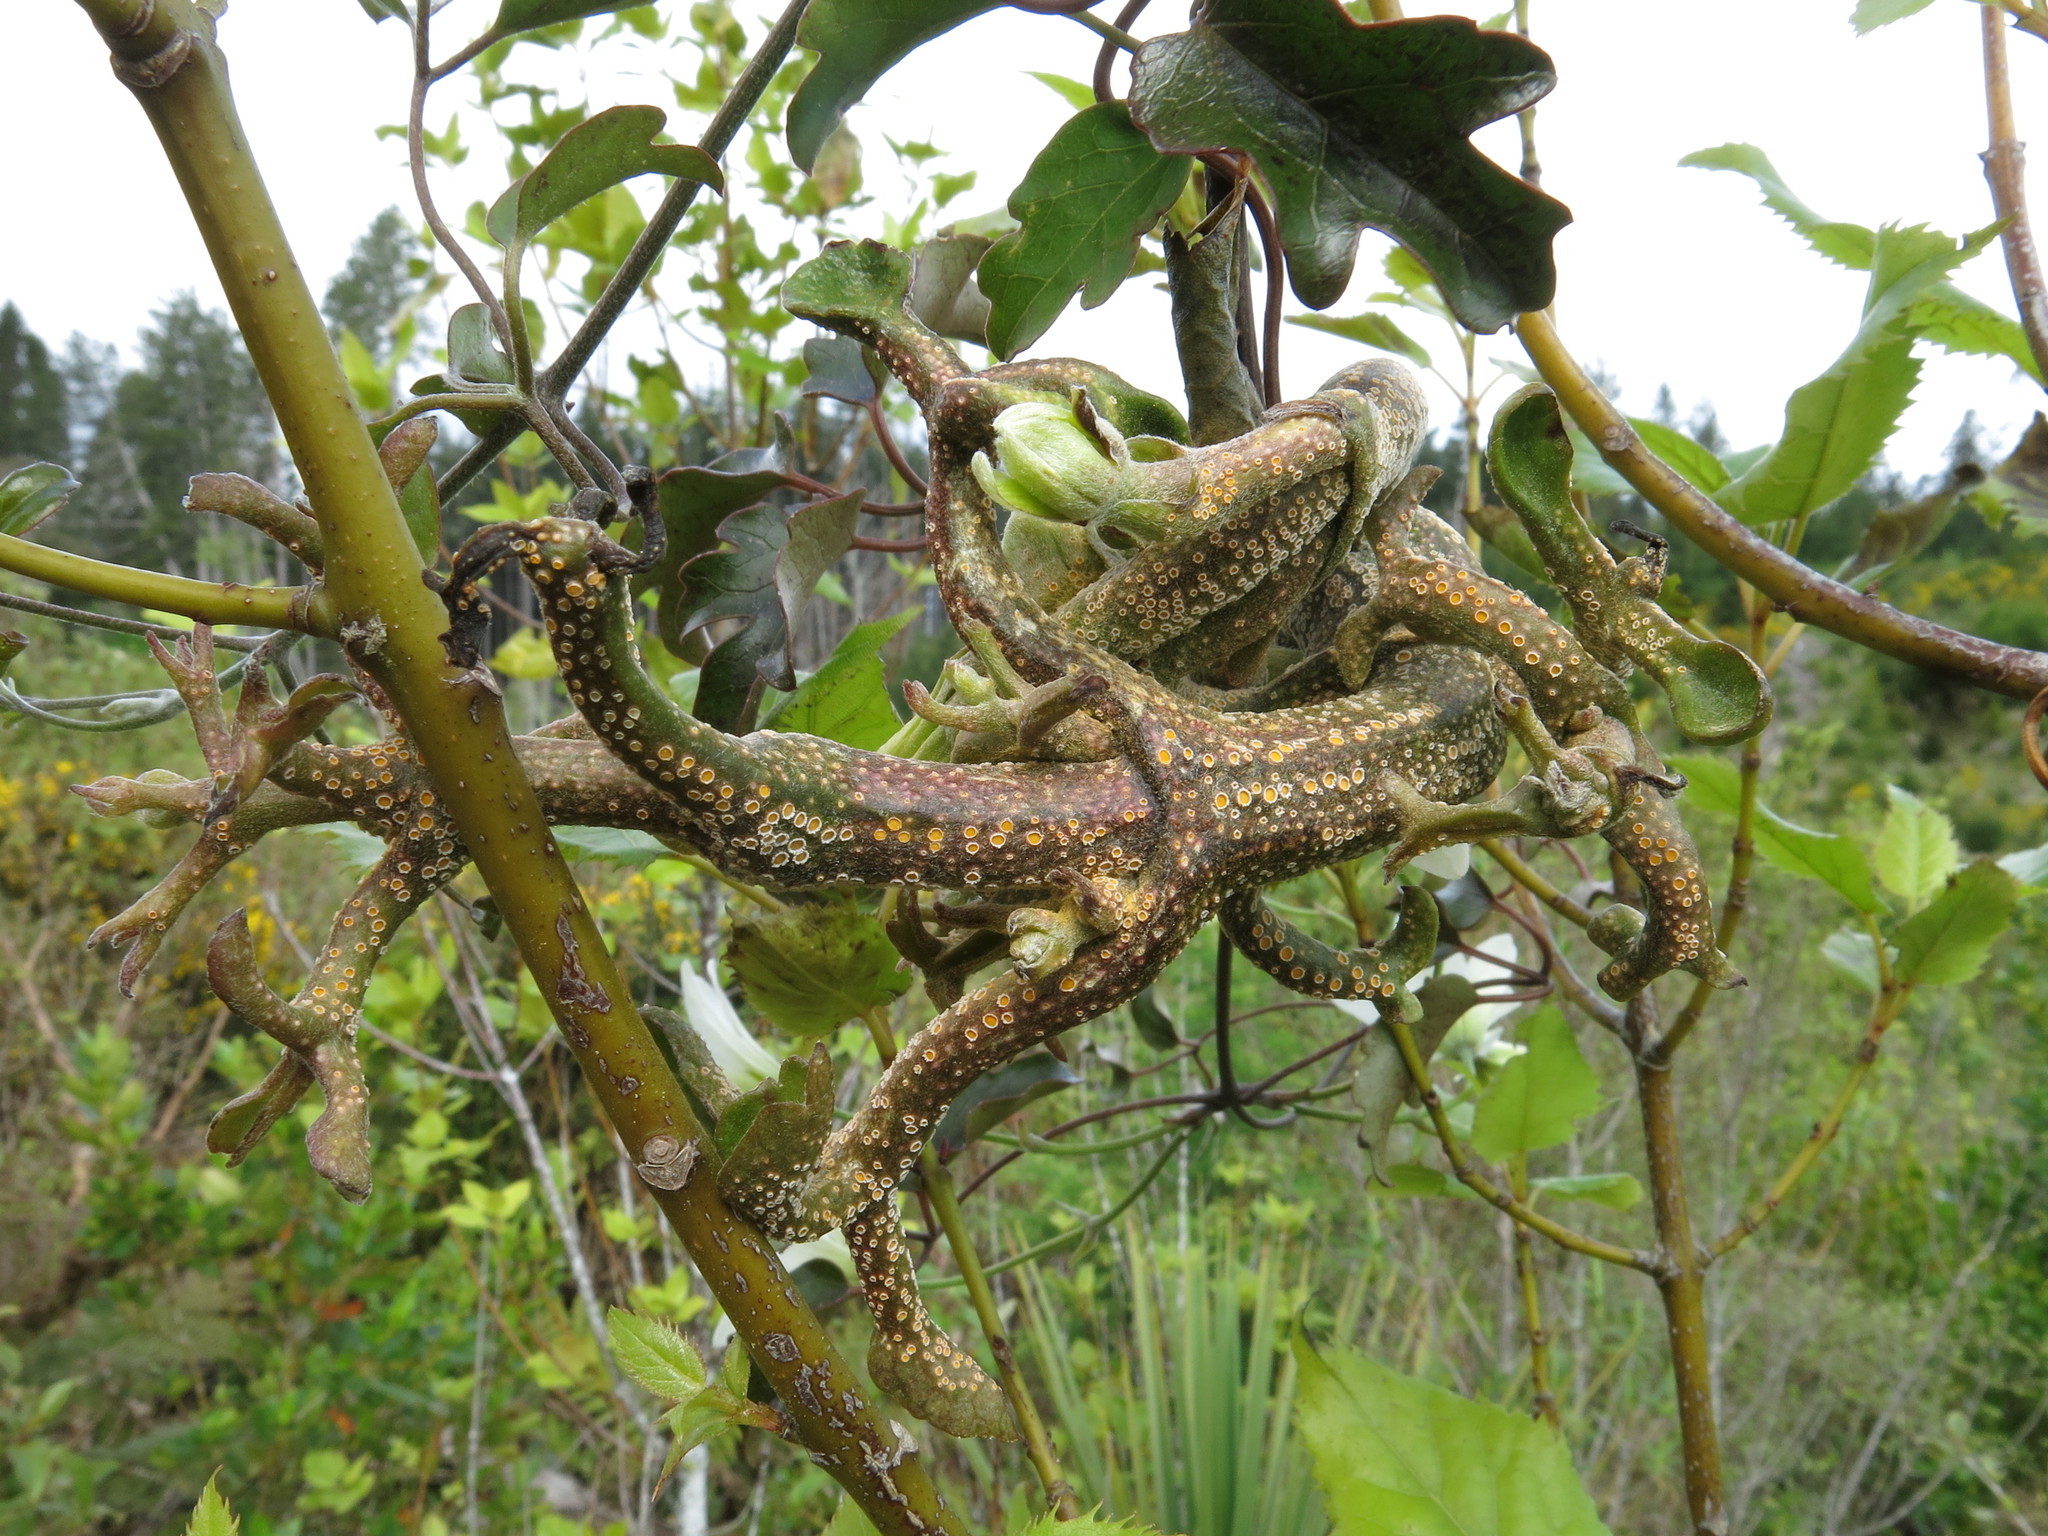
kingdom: Fungi
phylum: Basidiomycota
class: Pucciniomycetes
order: Pucciniales
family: Pucciniaceae
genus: Puccinia
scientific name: Puccinia otagensis
